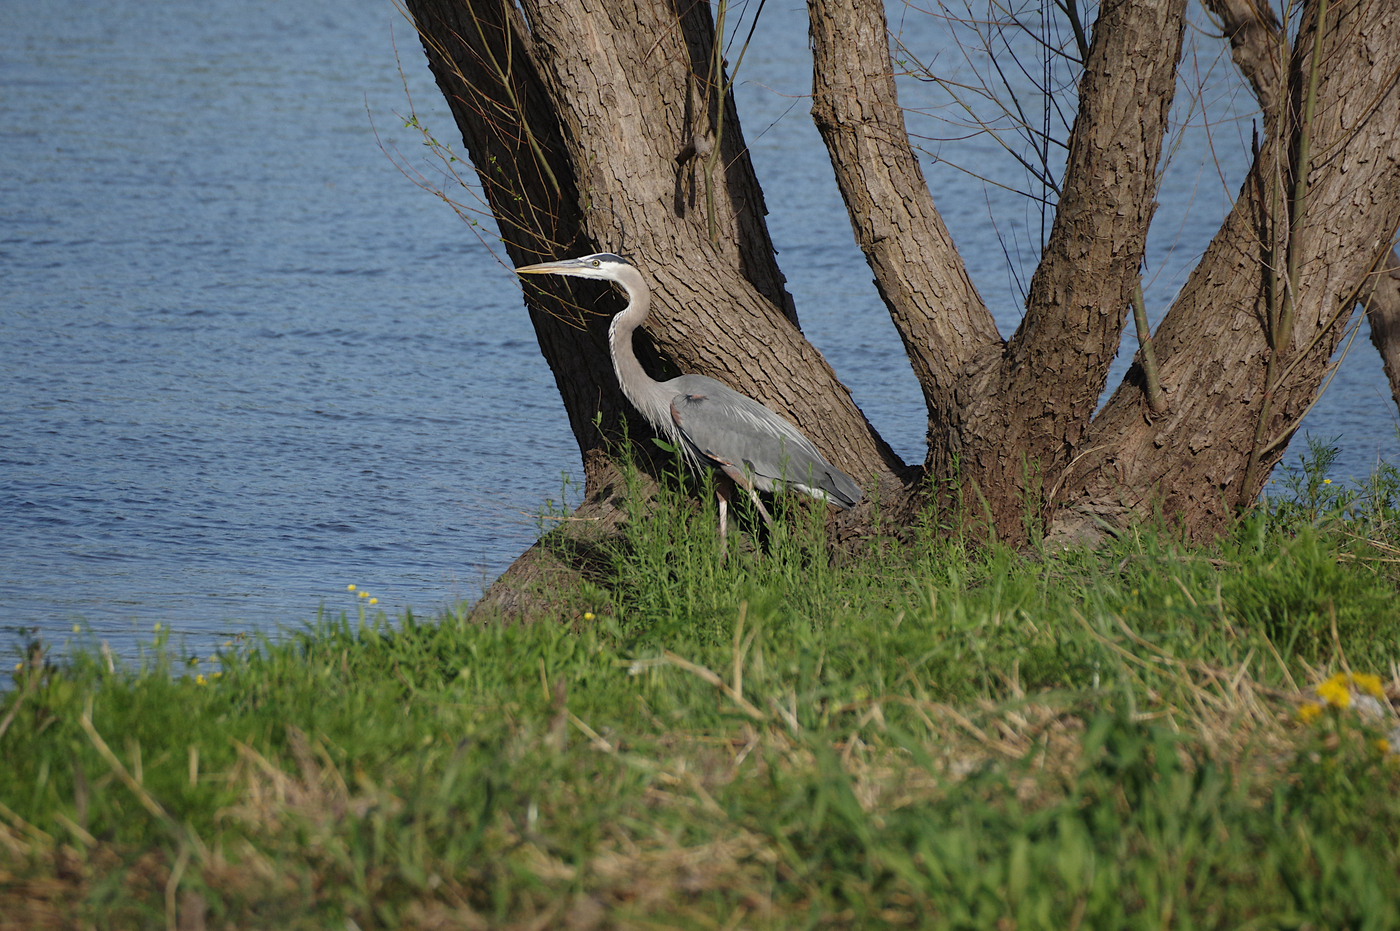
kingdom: Animalia
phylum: Chordata
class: Aves
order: Pelecaniformes
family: Ardeidae
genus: Ardea
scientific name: Ardea herodias
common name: Great blue heron
